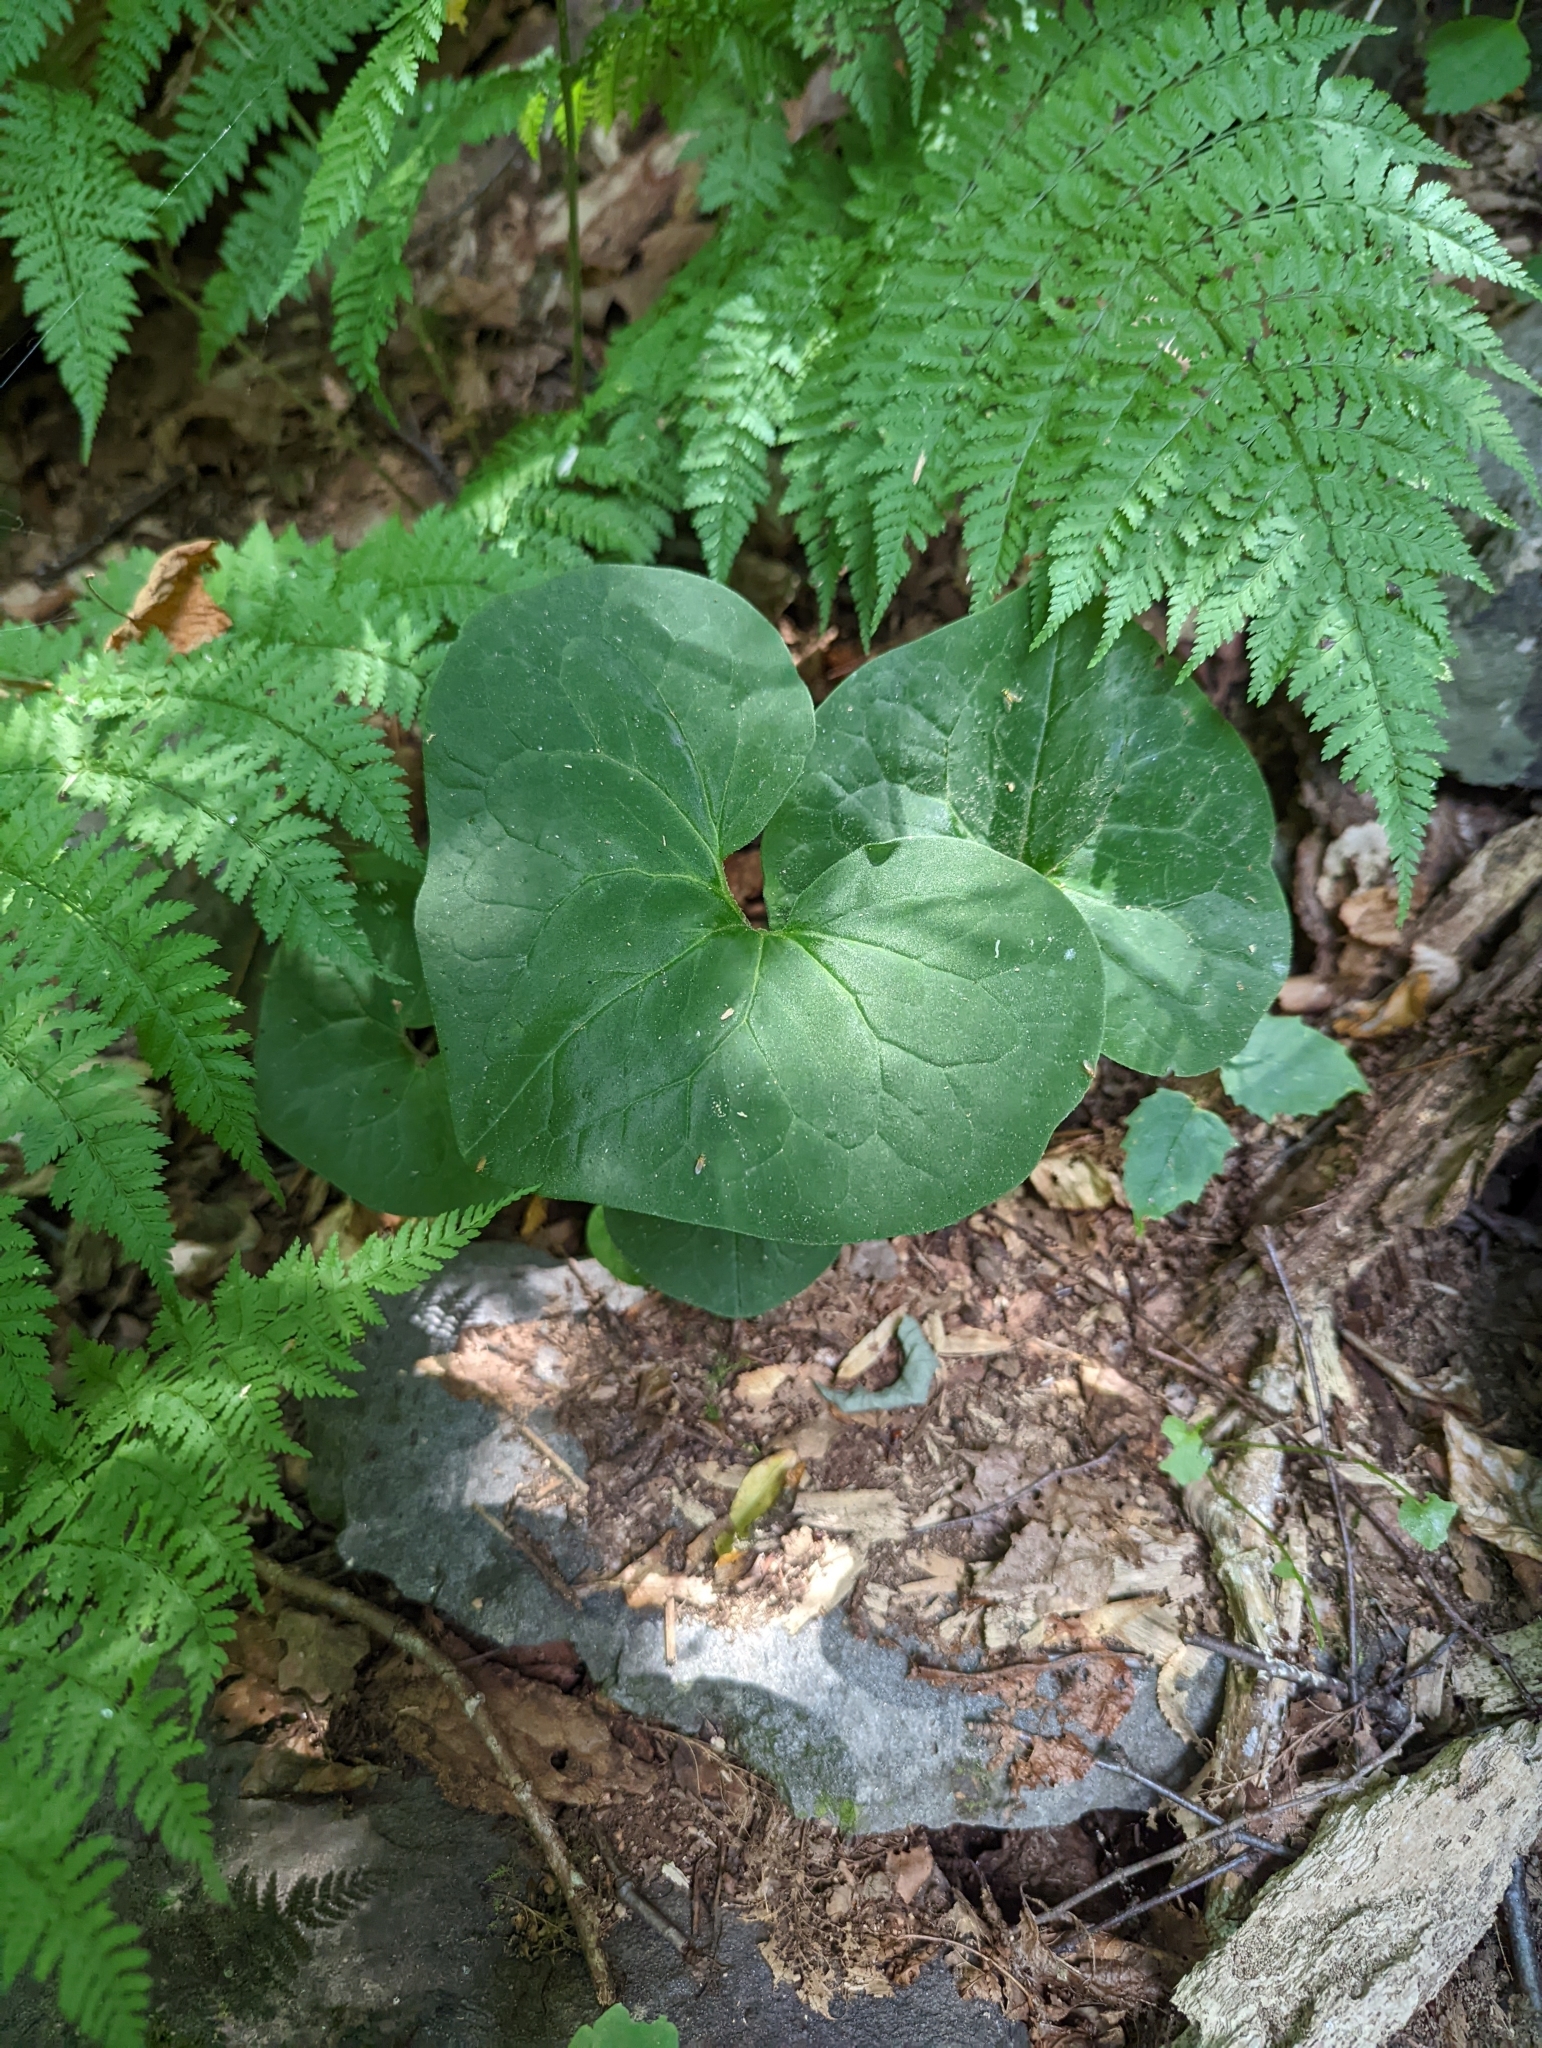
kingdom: Plantae
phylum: Tracheophyta
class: Magnoliopsida
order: Piperales
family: Aristolochiaceae
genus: Asarum
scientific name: Asarum canadense
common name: Wild ginger
